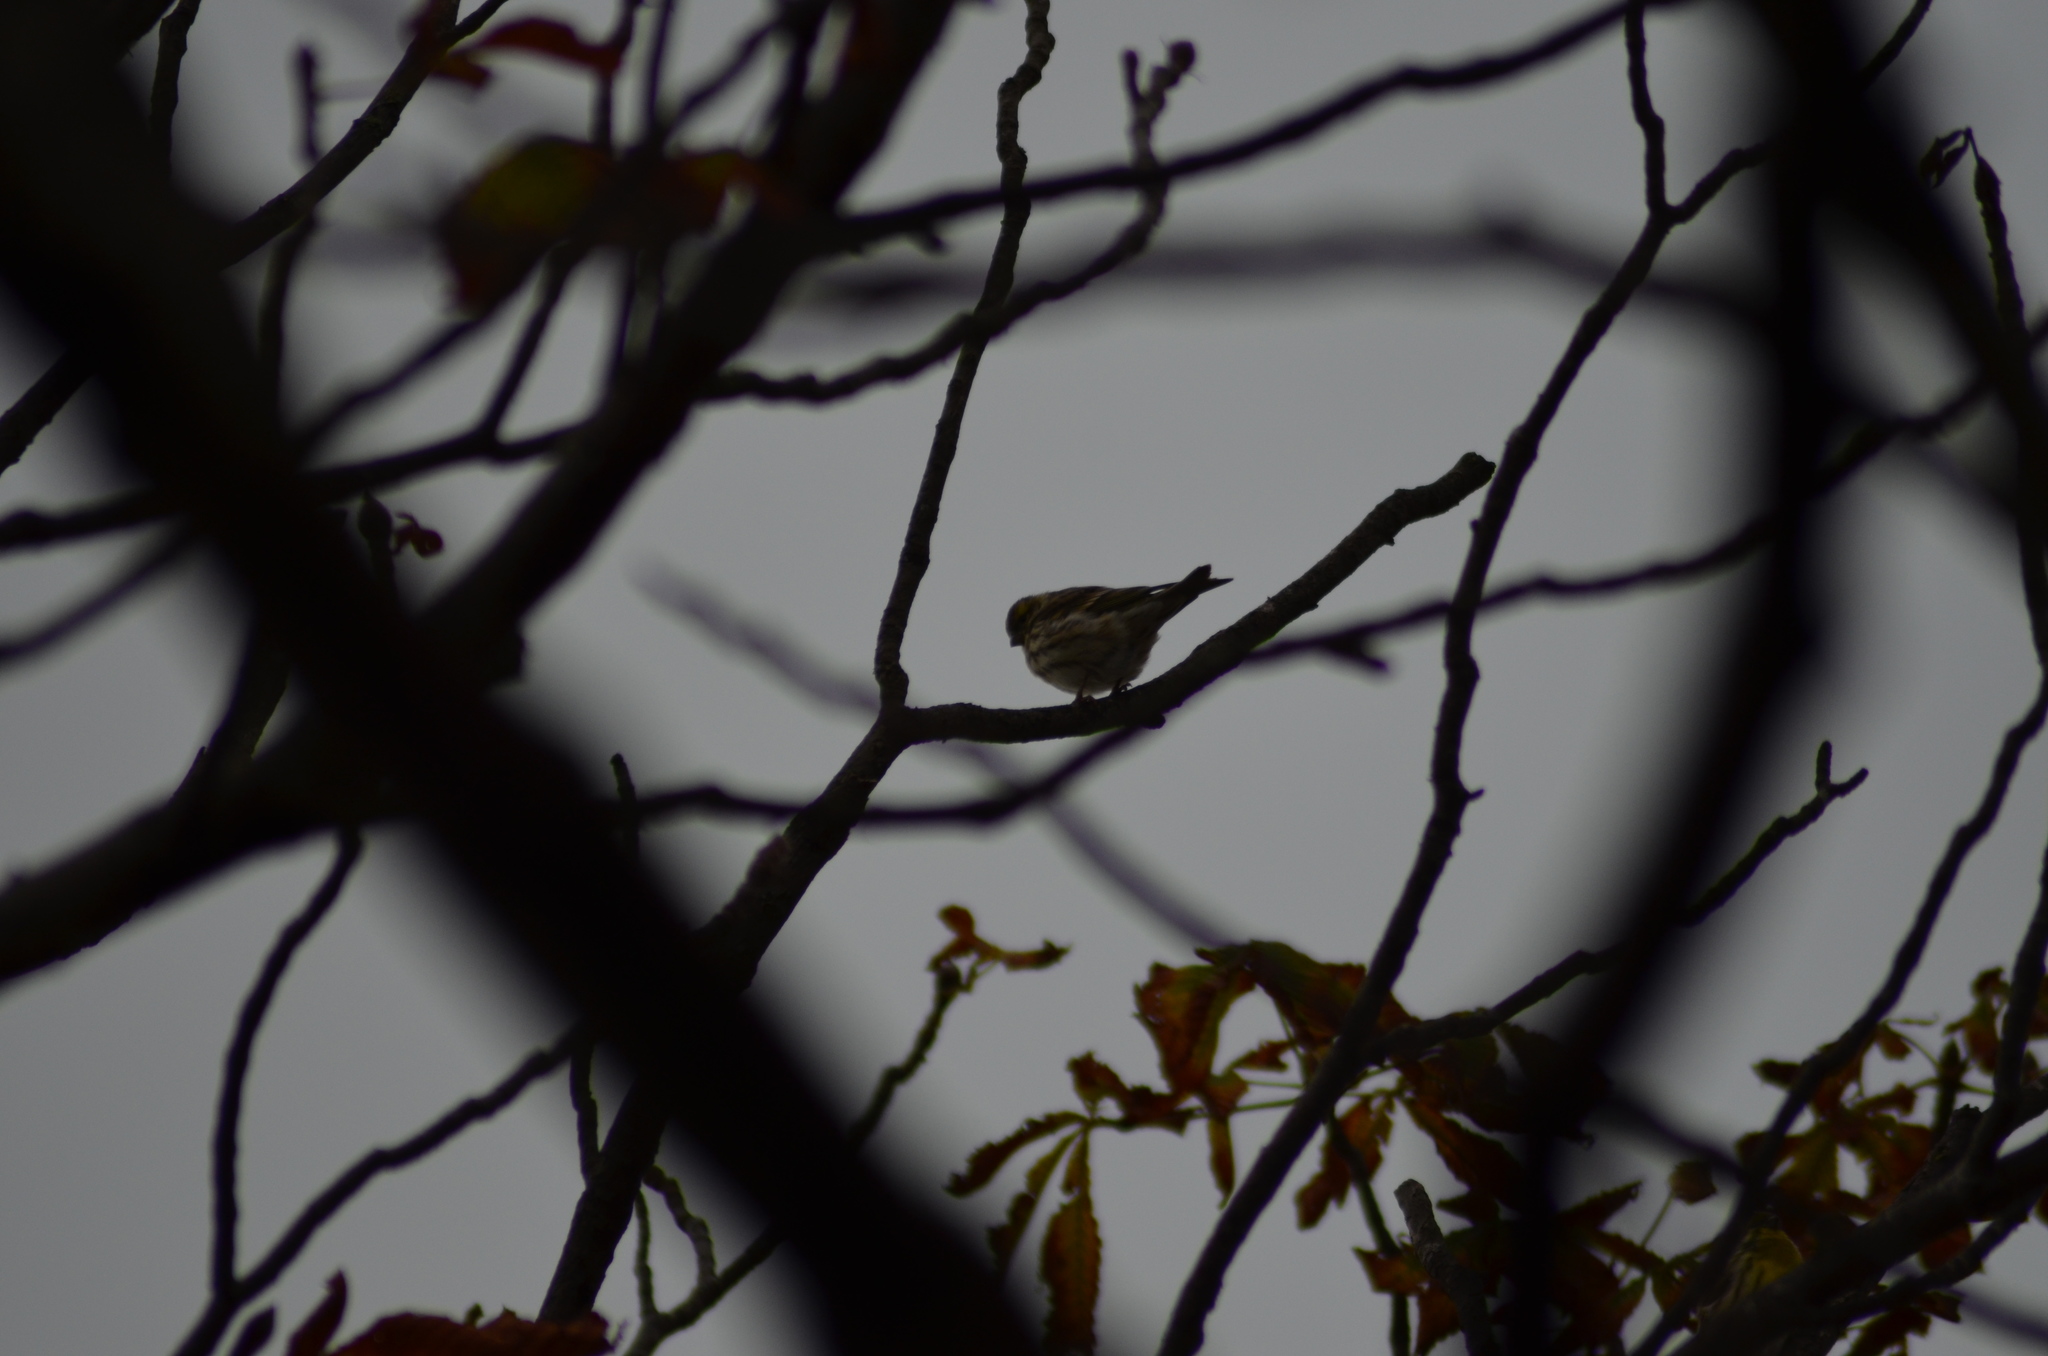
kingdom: Animalia
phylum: Chordata
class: Aves
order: Passeriformes
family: Fringillidae
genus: Serinus
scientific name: Serinus serinus
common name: European serin
